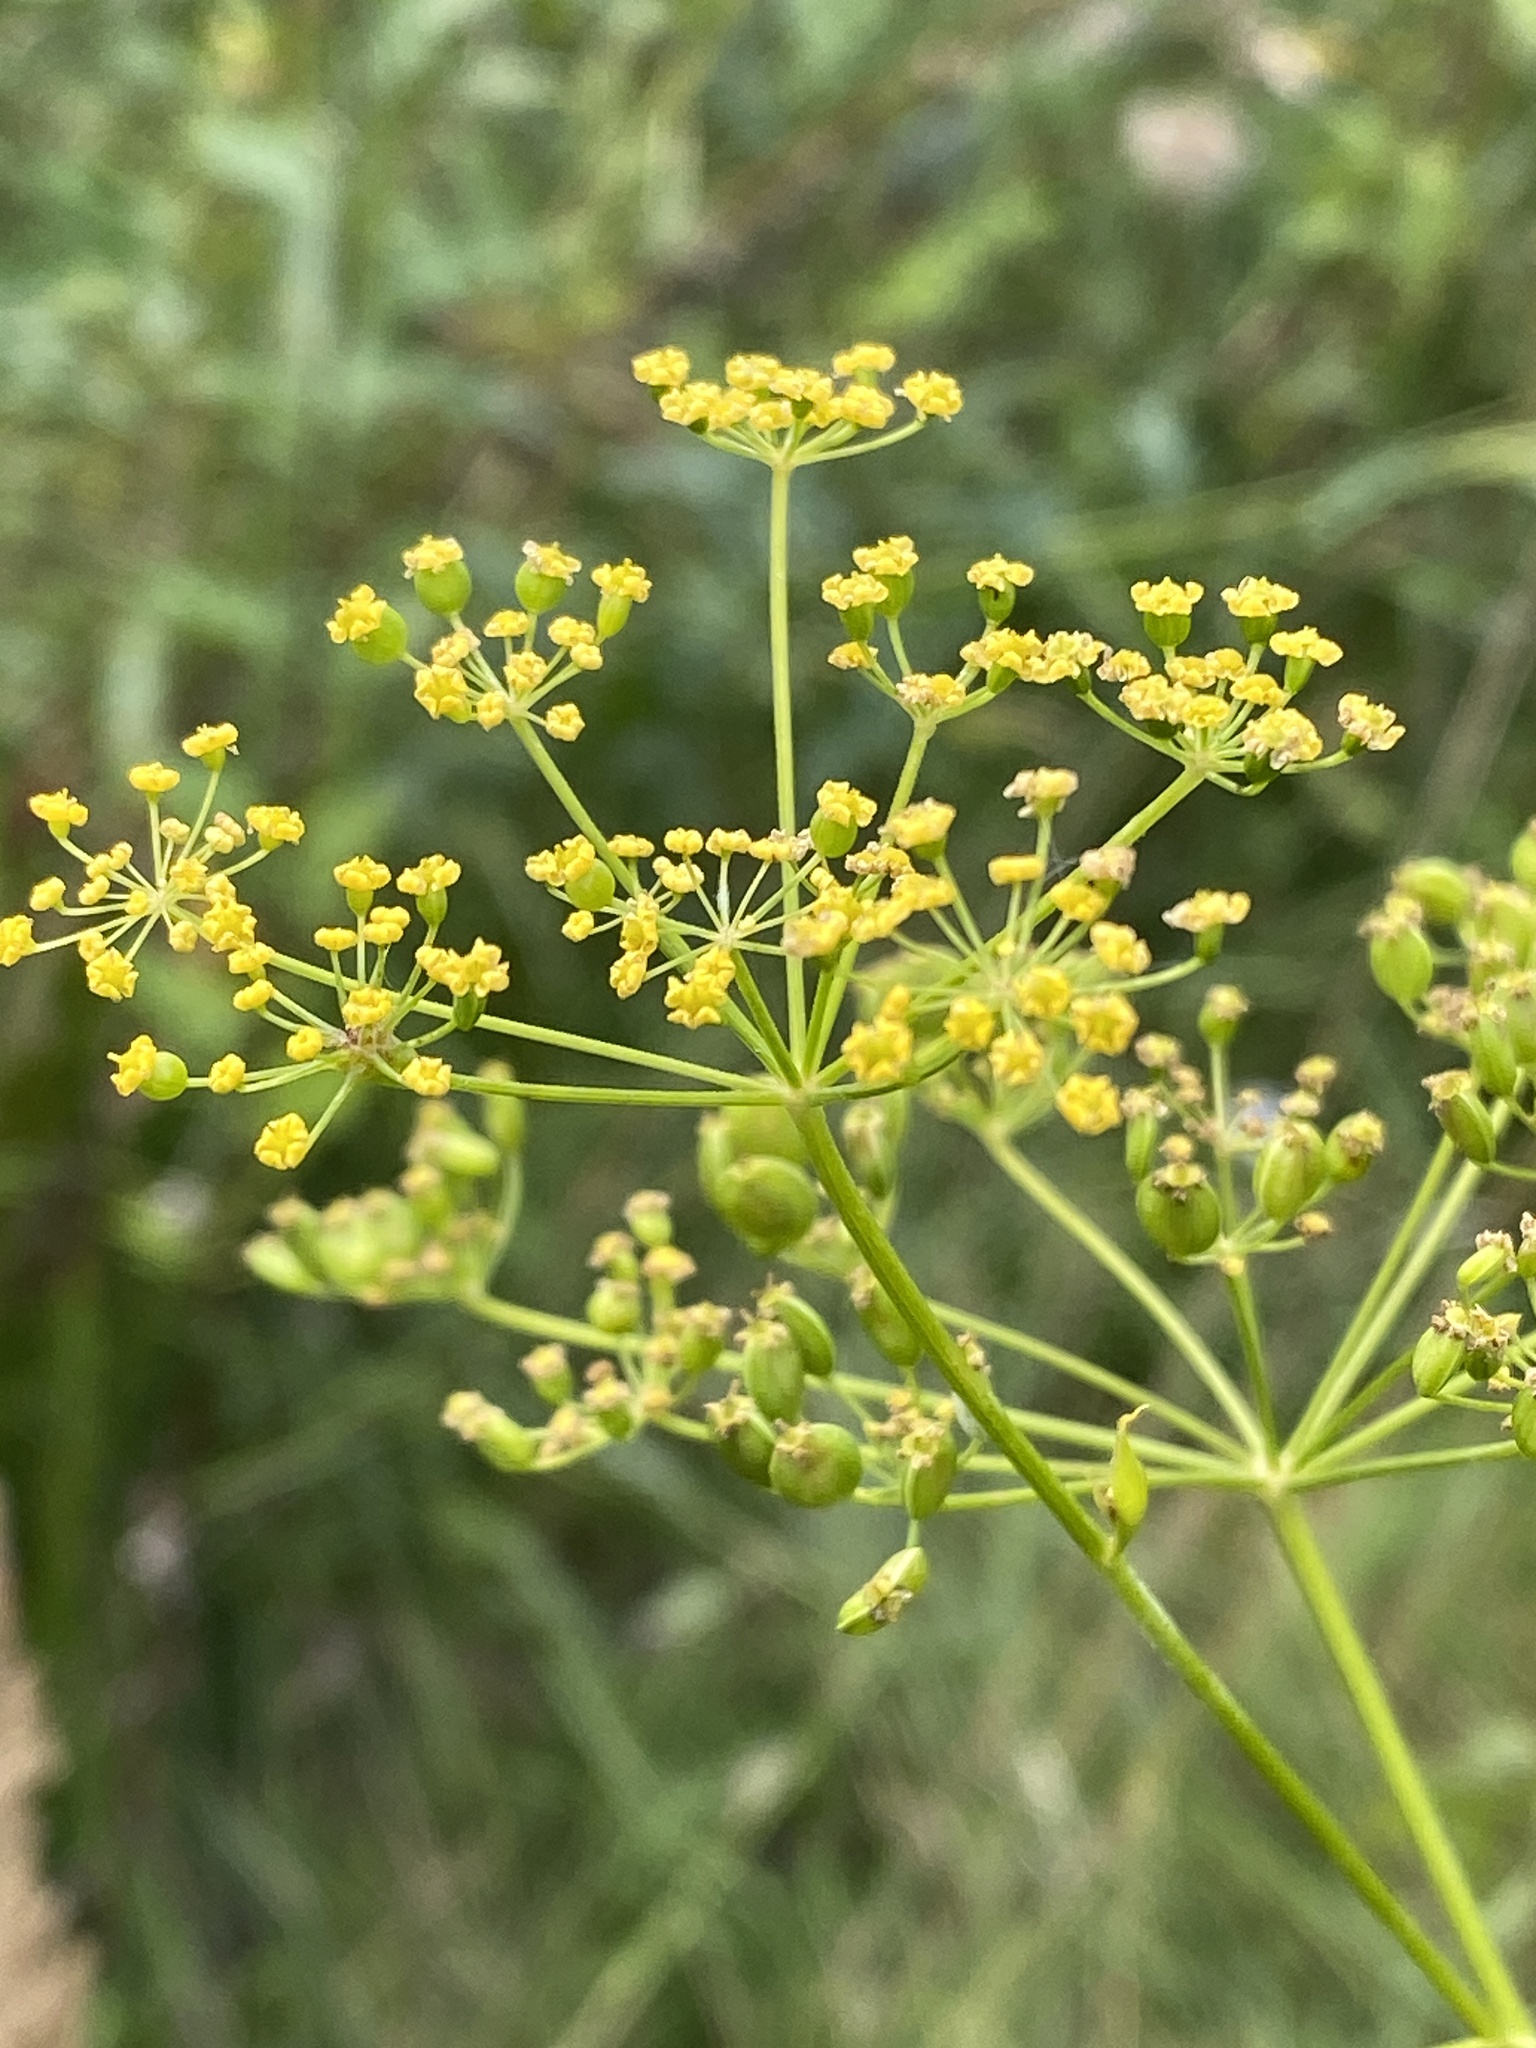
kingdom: Plantae
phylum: Tracheophyta
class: Magnoliopsida
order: Apiales
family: Apiaceae
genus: Pastinaca
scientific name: Pastinaca sativa
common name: Wild parsnip
